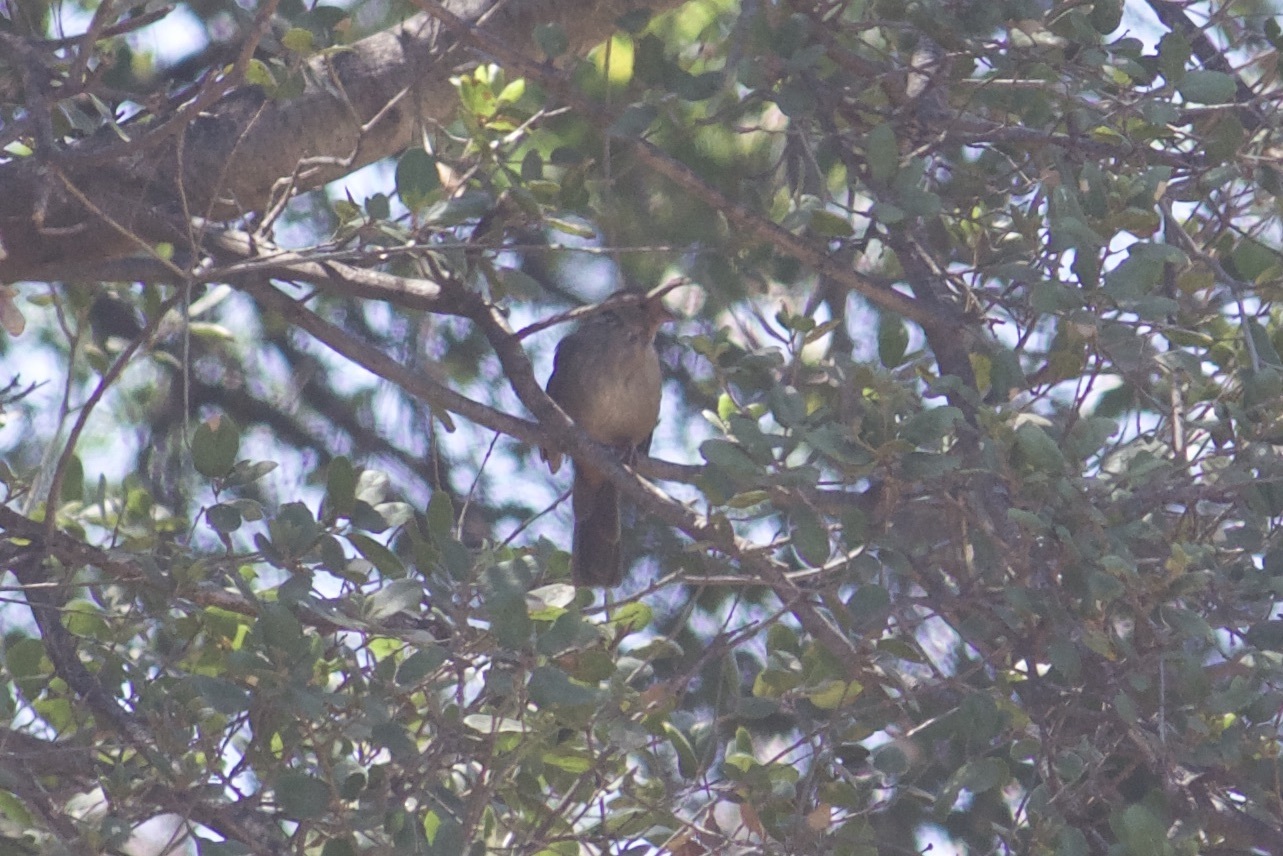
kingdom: Animalia
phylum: Chordata
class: Aves
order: Passeriformes
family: Passerellidae
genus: Melozone
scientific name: Melozone crissalis
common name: California towhee
